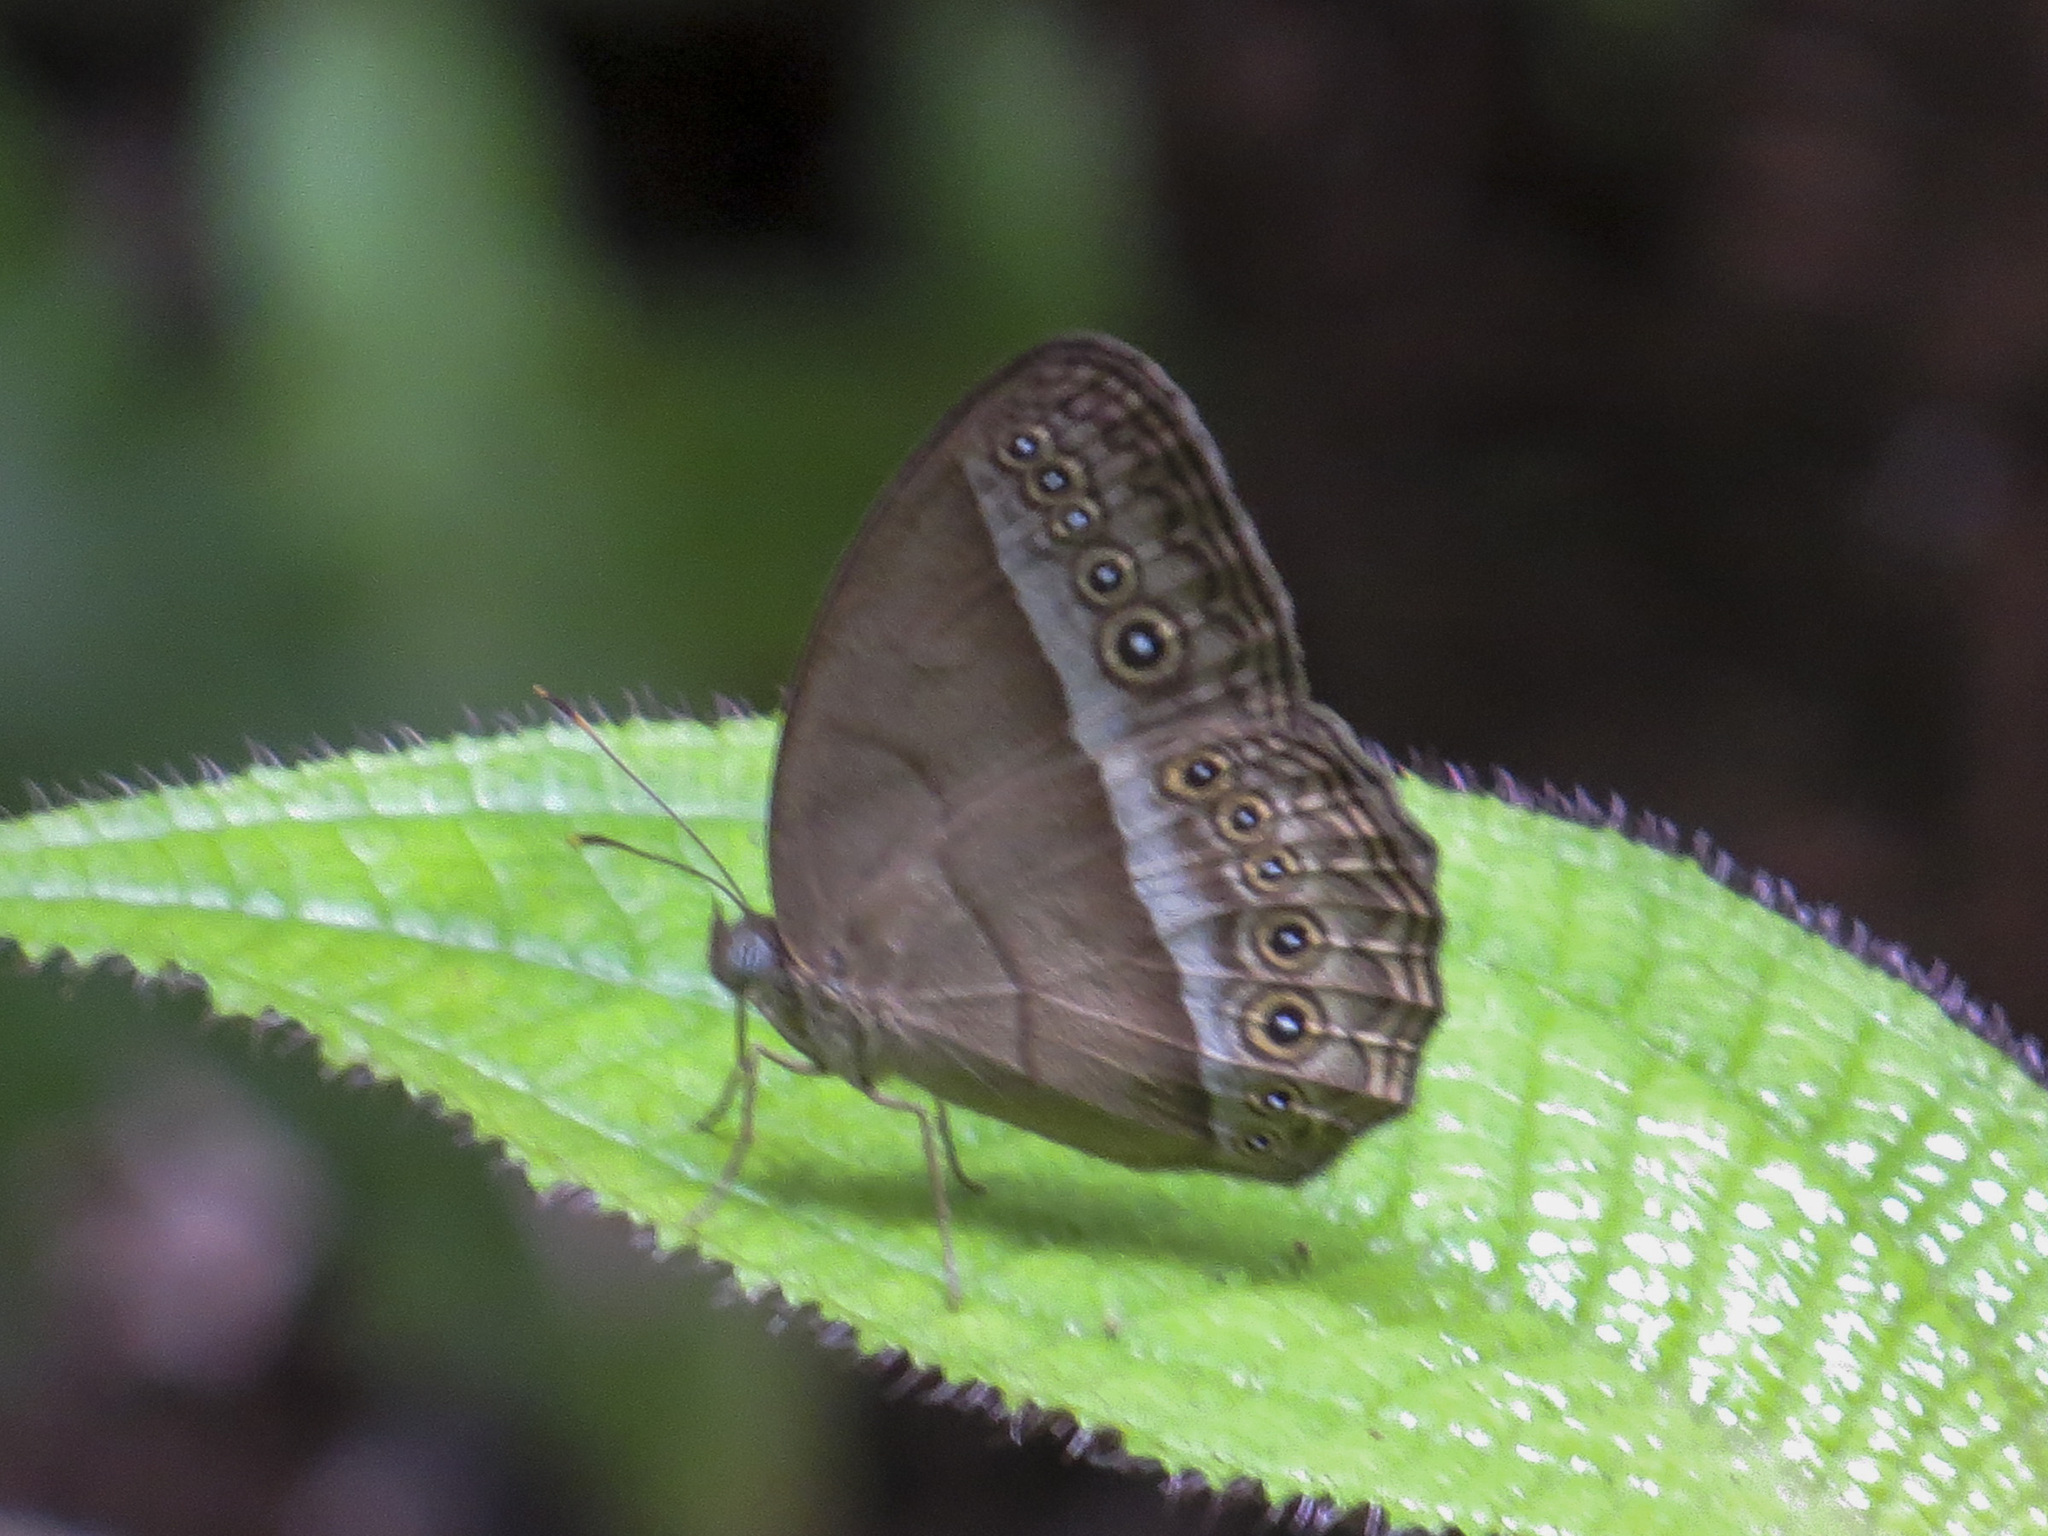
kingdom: Animalia
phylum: Arthropoda
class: Insecta
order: Lepidoptera
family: Nymphalidae
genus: Mycalesis
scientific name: Mycalesis orseis
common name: Purple bushbrown
